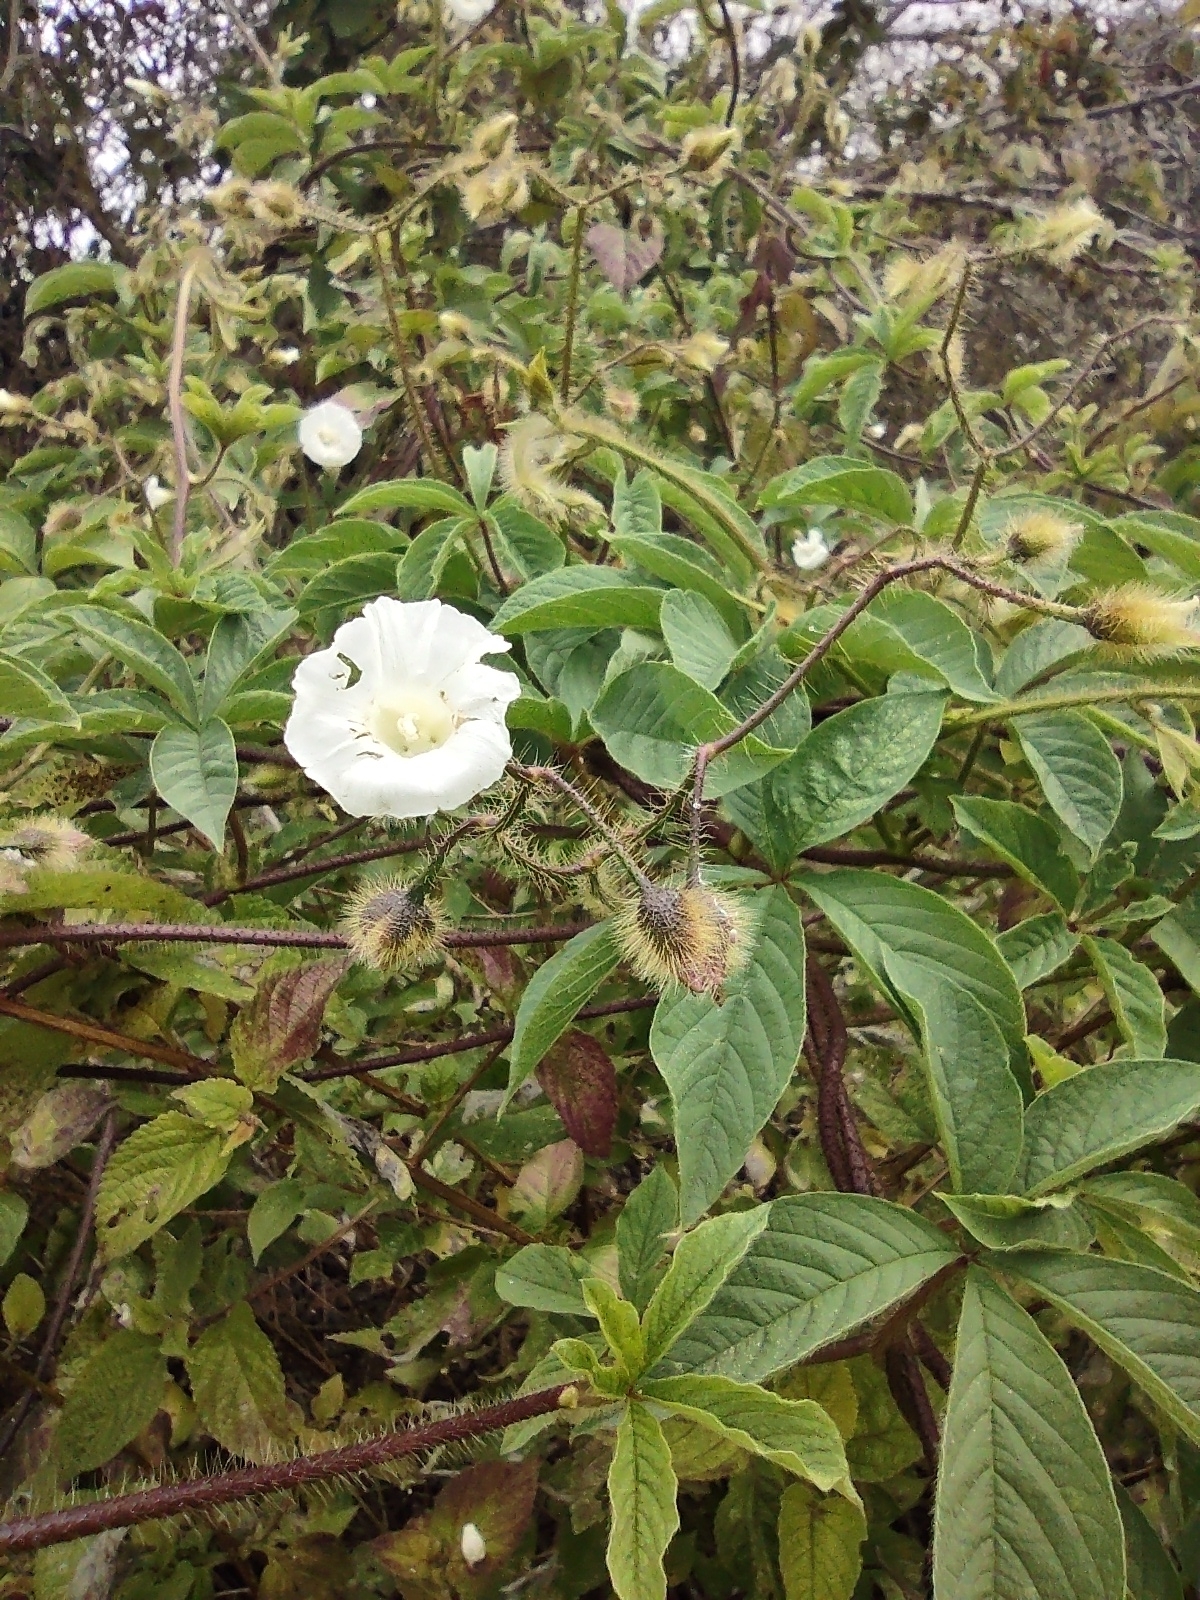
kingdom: Plantae
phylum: Tracheophyta
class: Magnoliopsida
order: Solanales
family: Convolvulaceae
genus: Distimake
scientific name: Distimake aegyptius
